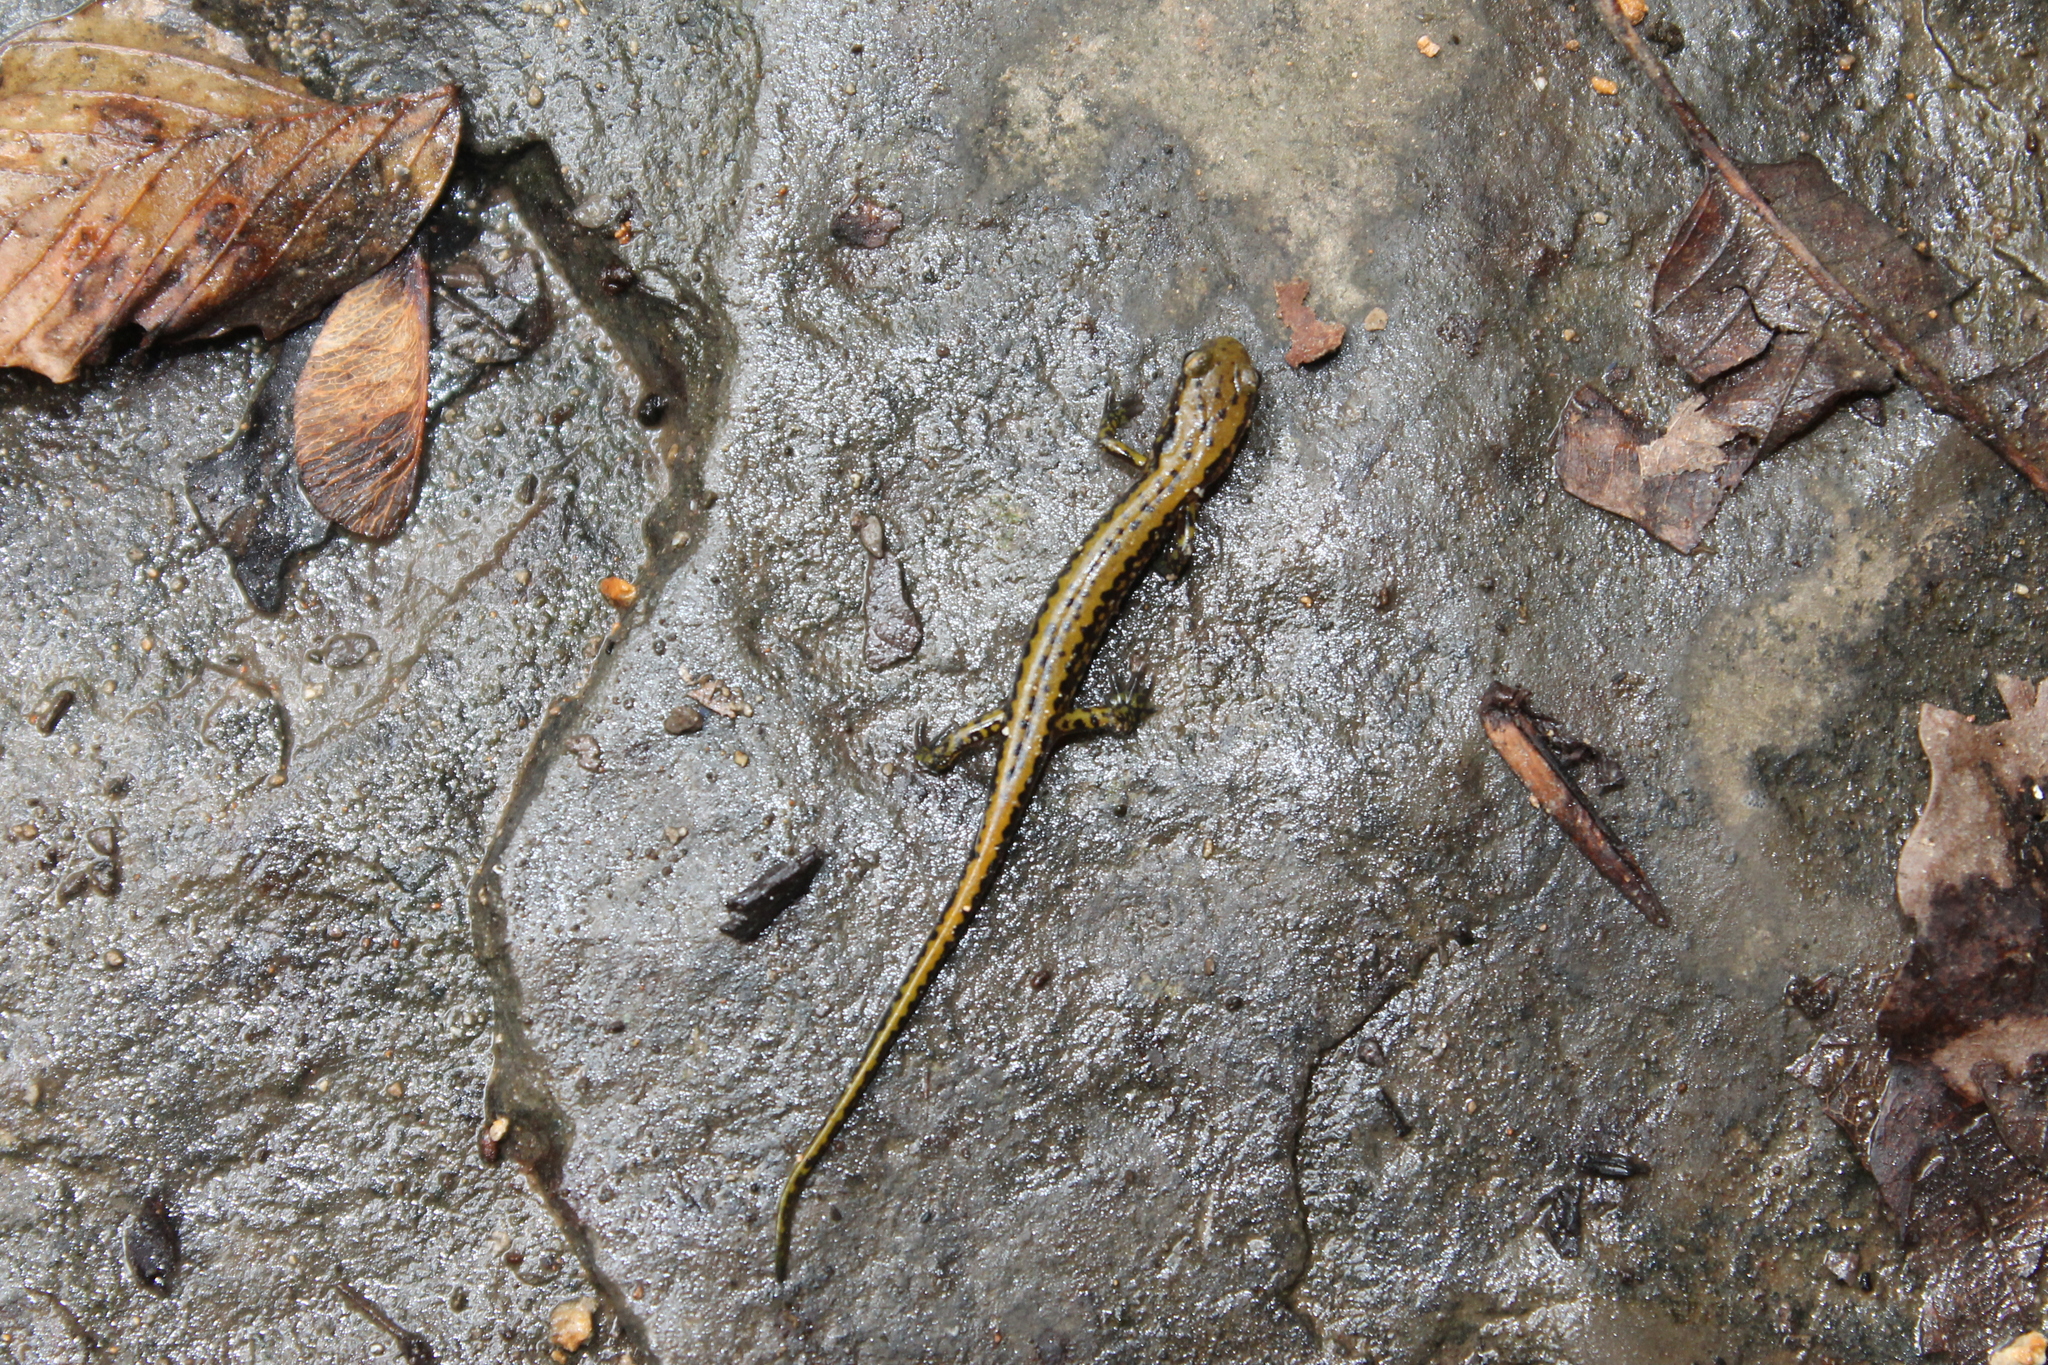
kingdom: Animalia
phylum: Chordata
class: Amphibia
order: Caudata
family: Plethodontidae
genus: Eurycea
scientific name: Eurycea longicauda
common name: Long-tailed salamander
